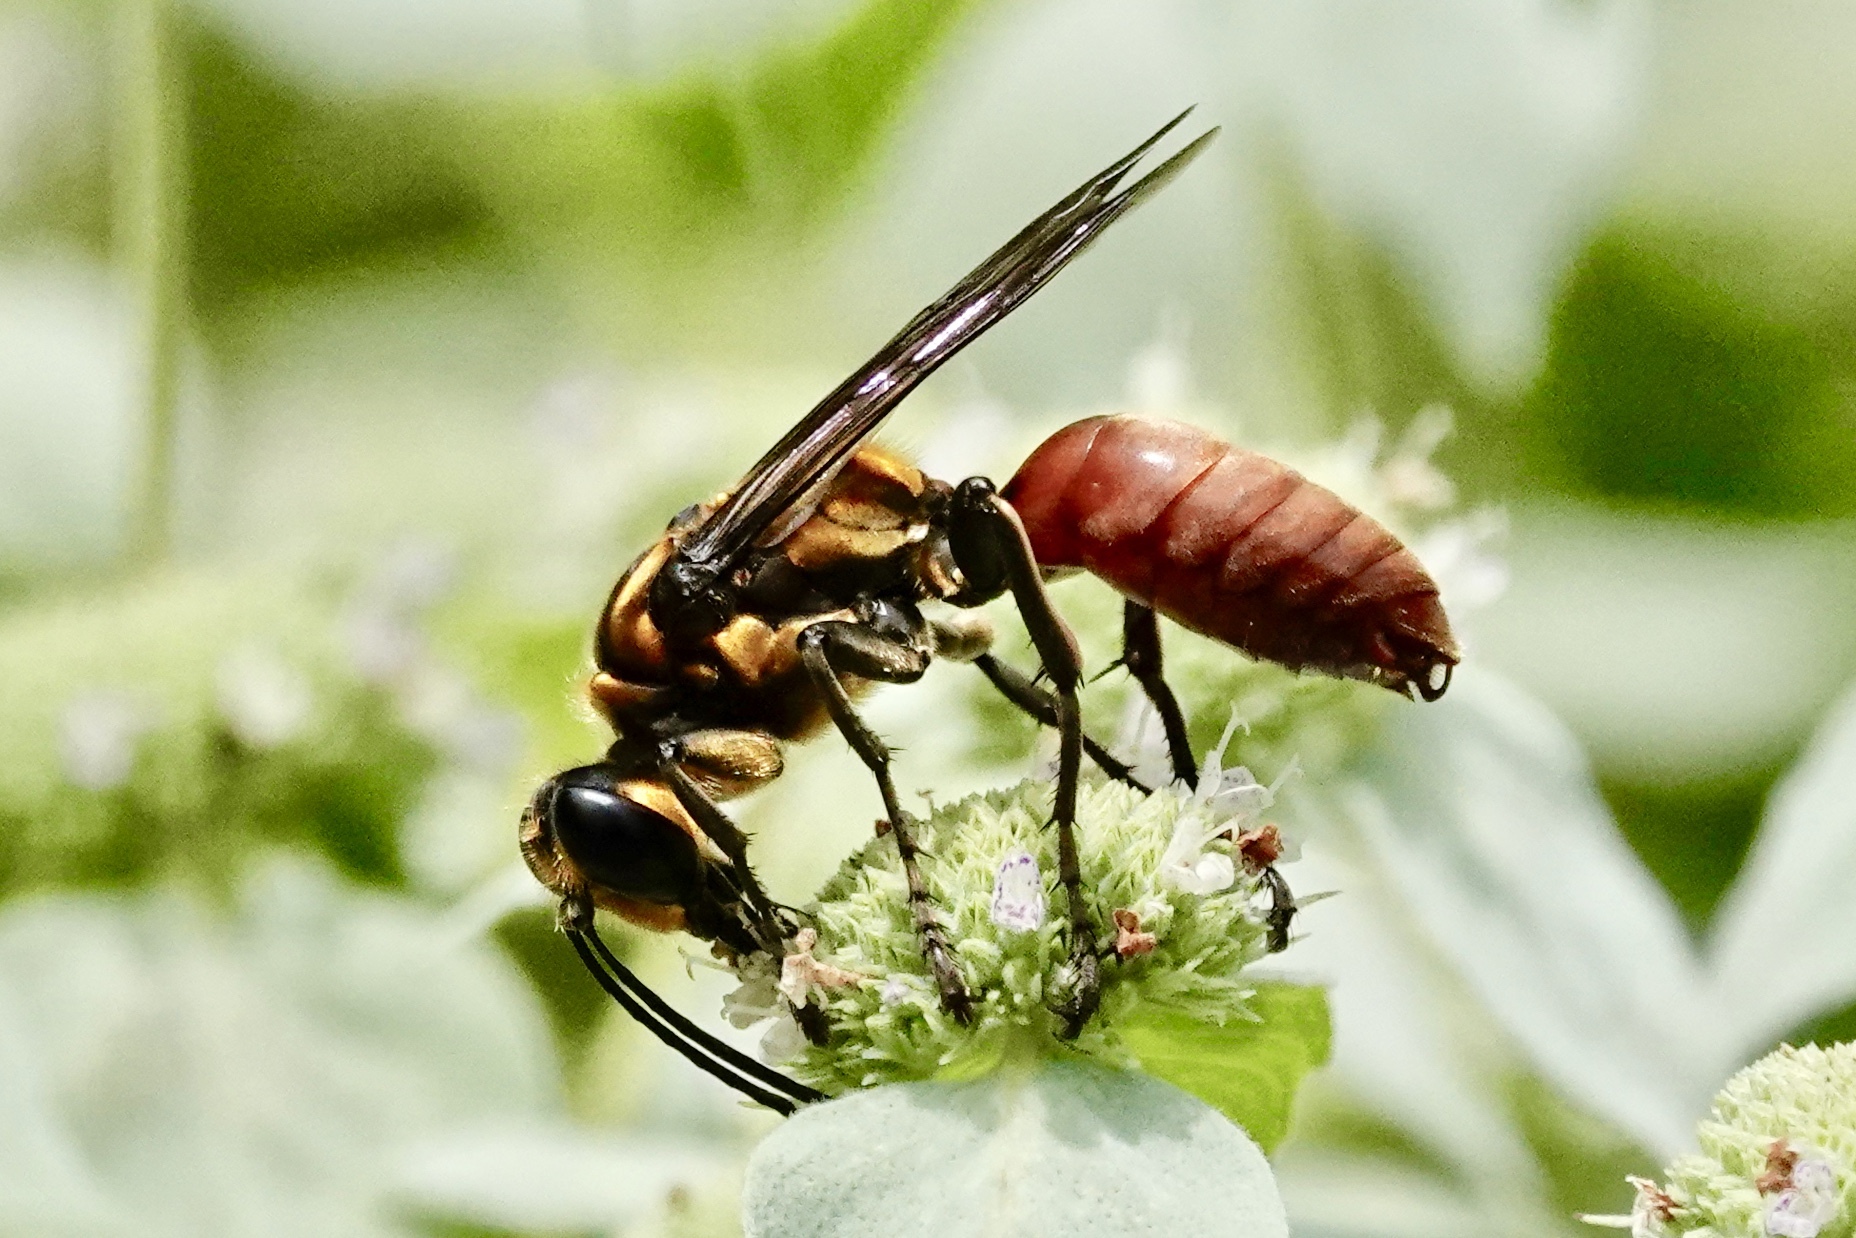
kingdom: Animalia
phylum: Arthropoda
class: Insecta
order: Hymenoptera
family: Sphecidae
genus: Sphex
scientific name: Sphex habenus
